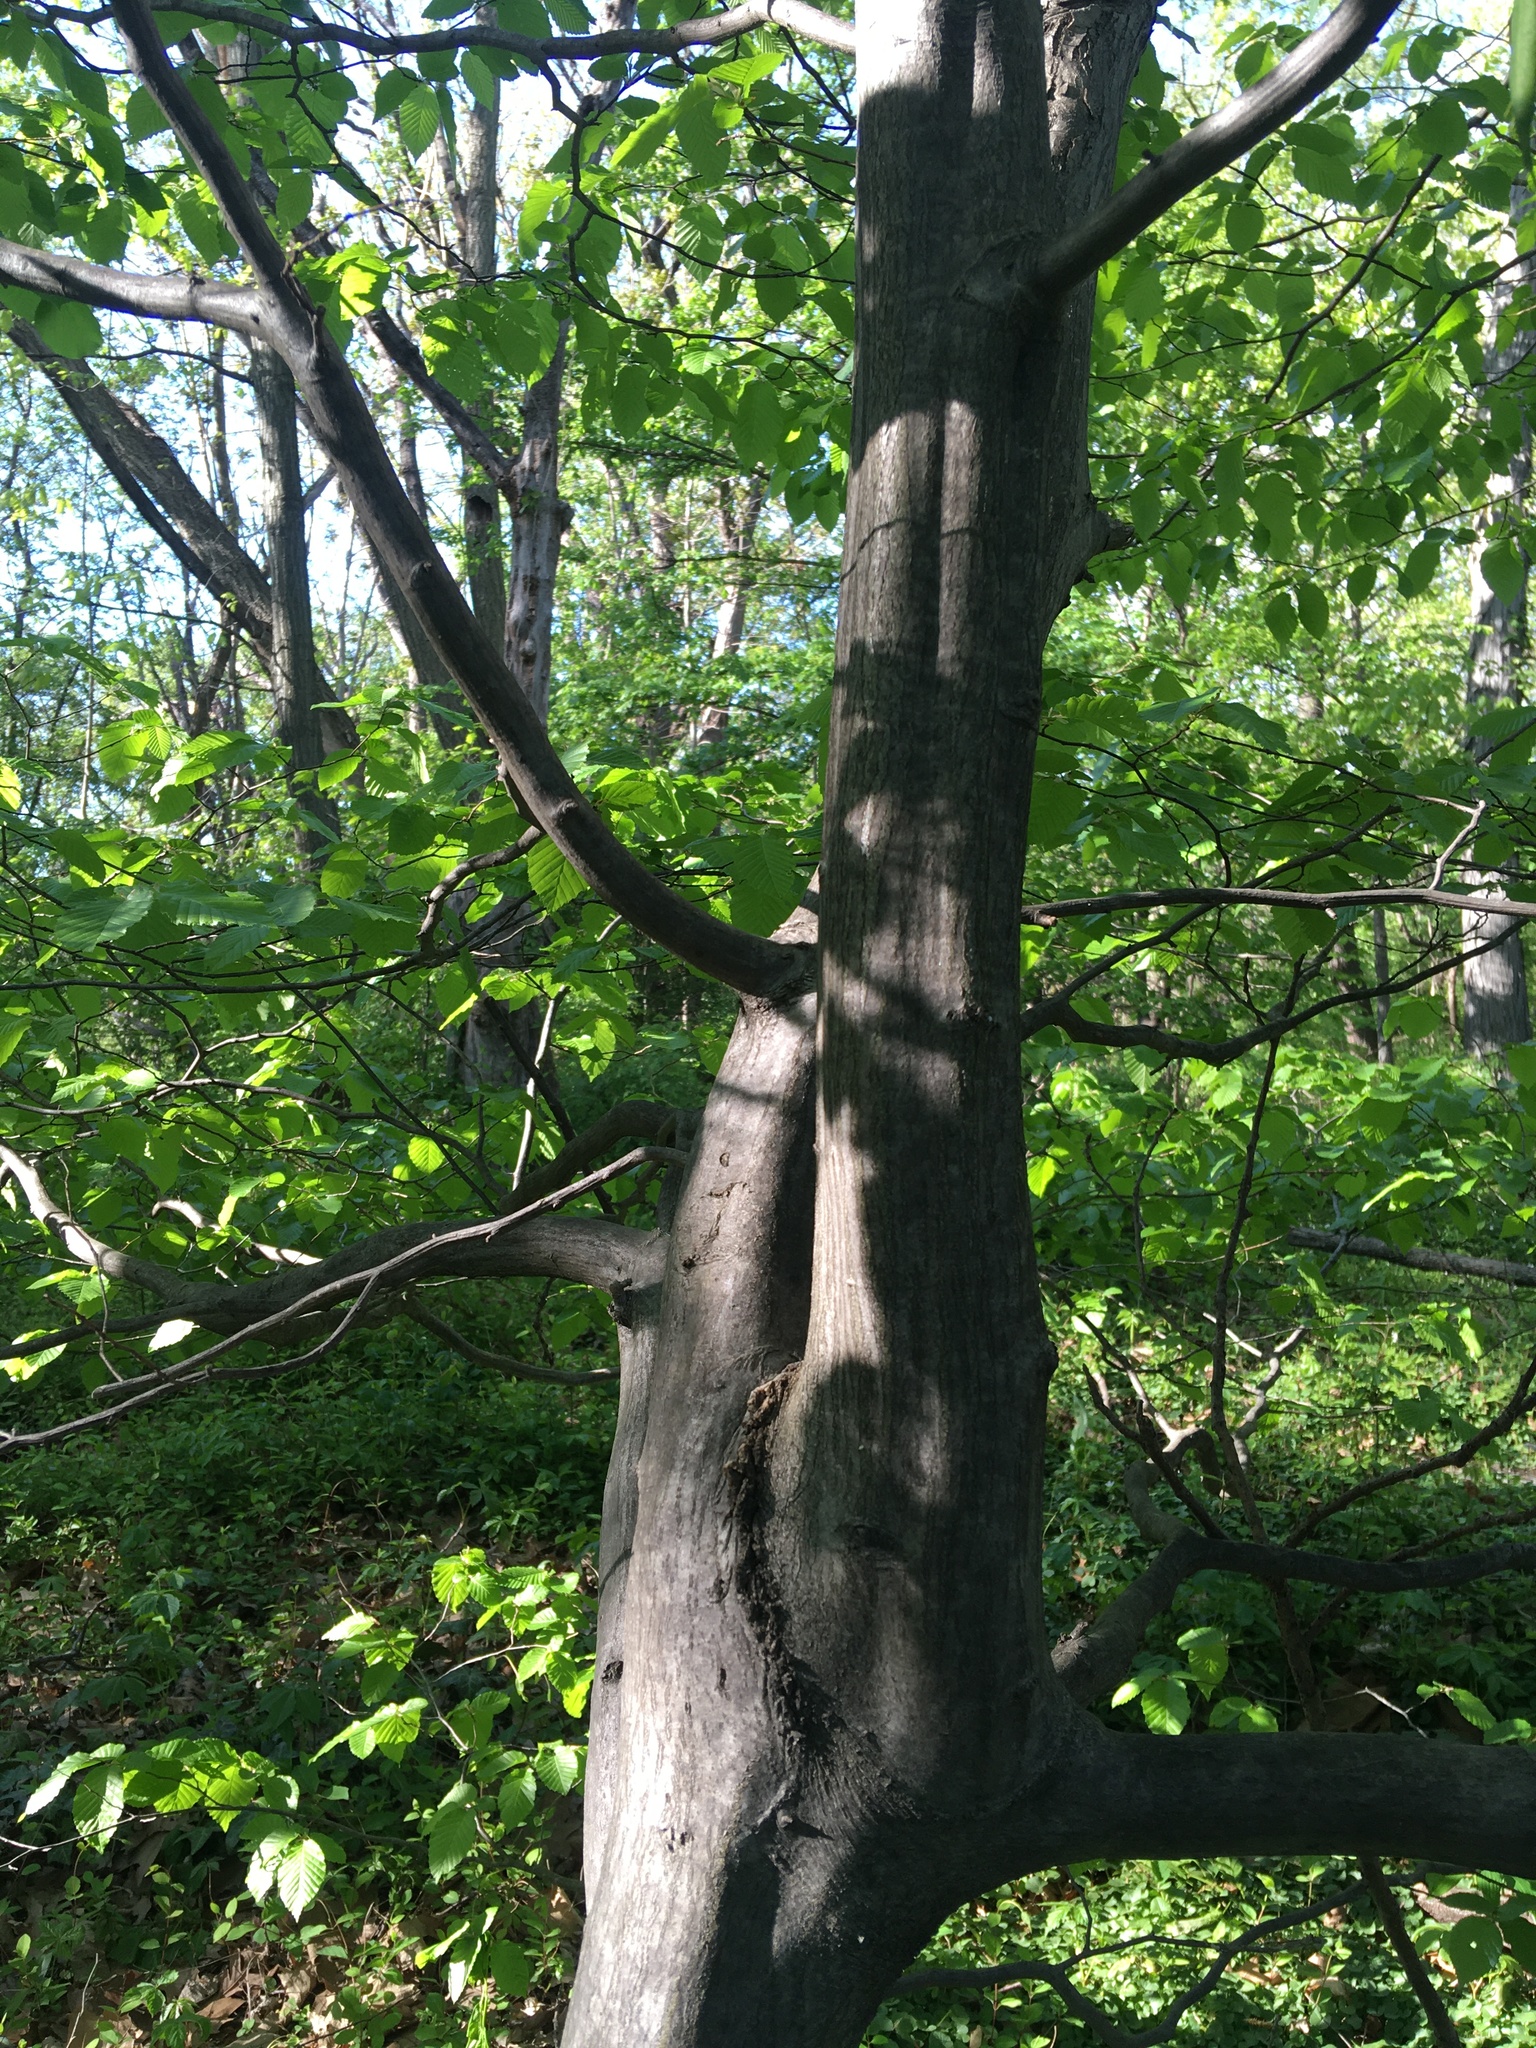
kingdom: Plantae
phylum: Tracheophyta
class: Magnoliopsida
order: Fagales
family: Betulaceae
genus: Carpinus
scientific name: Carpinus caroliniana
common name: American hornbeam
